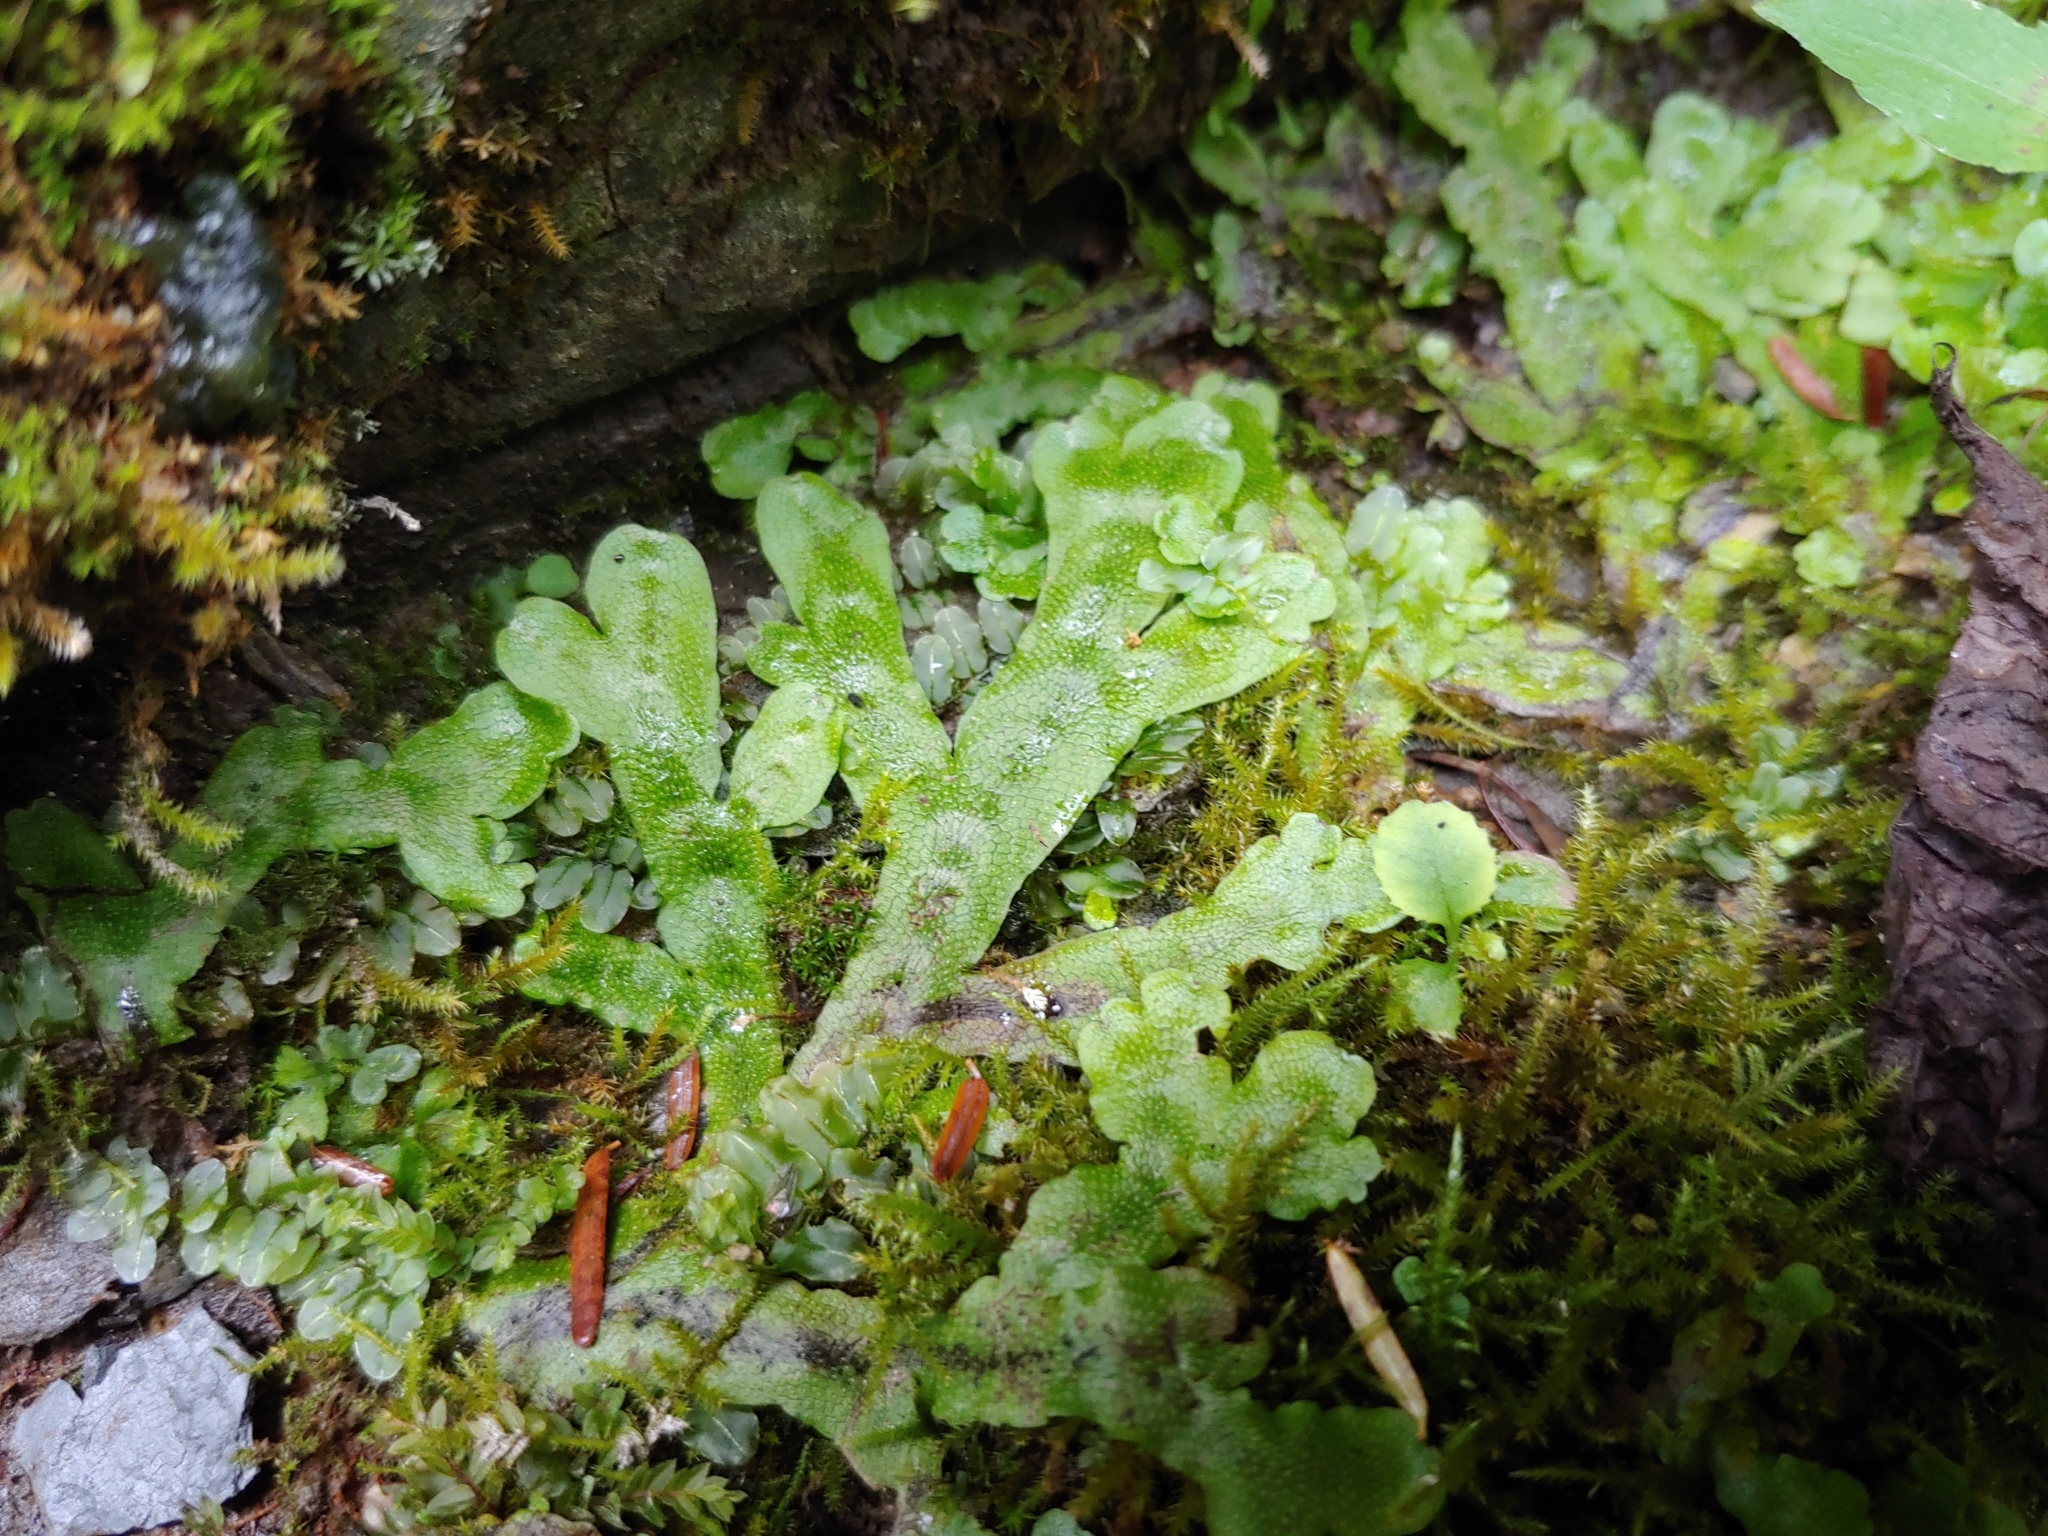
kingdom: Plantae
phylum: Marchantiophyta
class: Marchantiopsida
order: Marchantiales
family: Conocephalaceae
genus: Conocephalum
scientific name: Conocephalum salebrosum
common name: Cat-tongue liverwort
